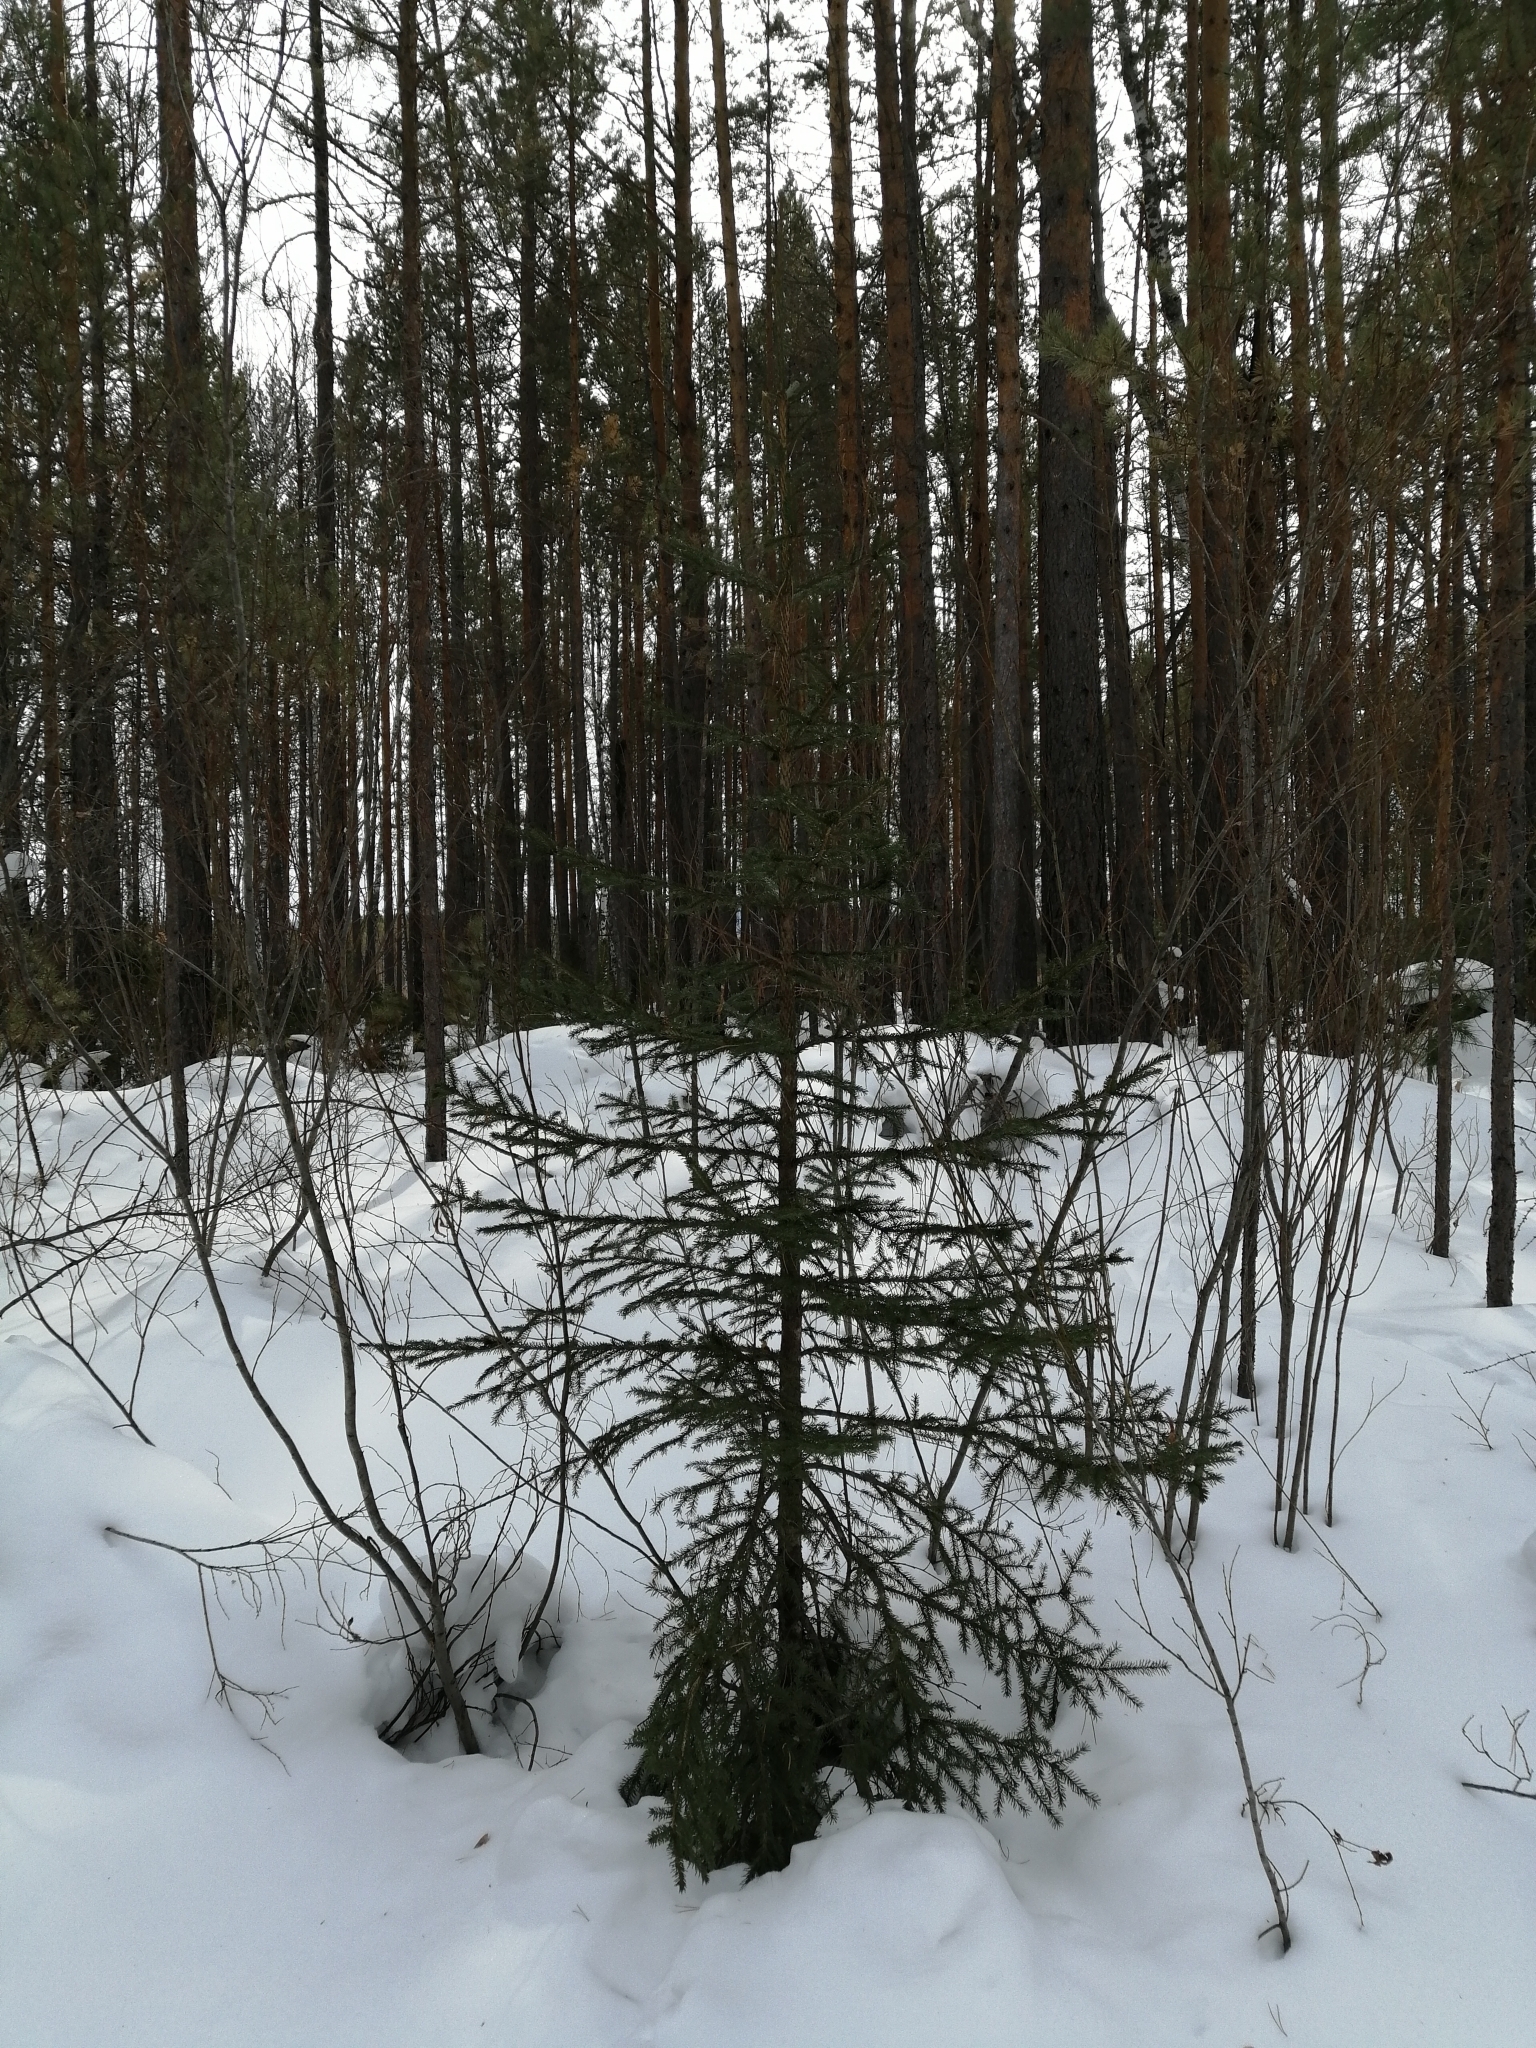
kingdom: Plantae
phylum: Tracheophyta
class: Pinopsida
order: Pinales
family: Pinaceae
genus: Picea
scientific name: Picea obovata
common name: Siberian spruce
